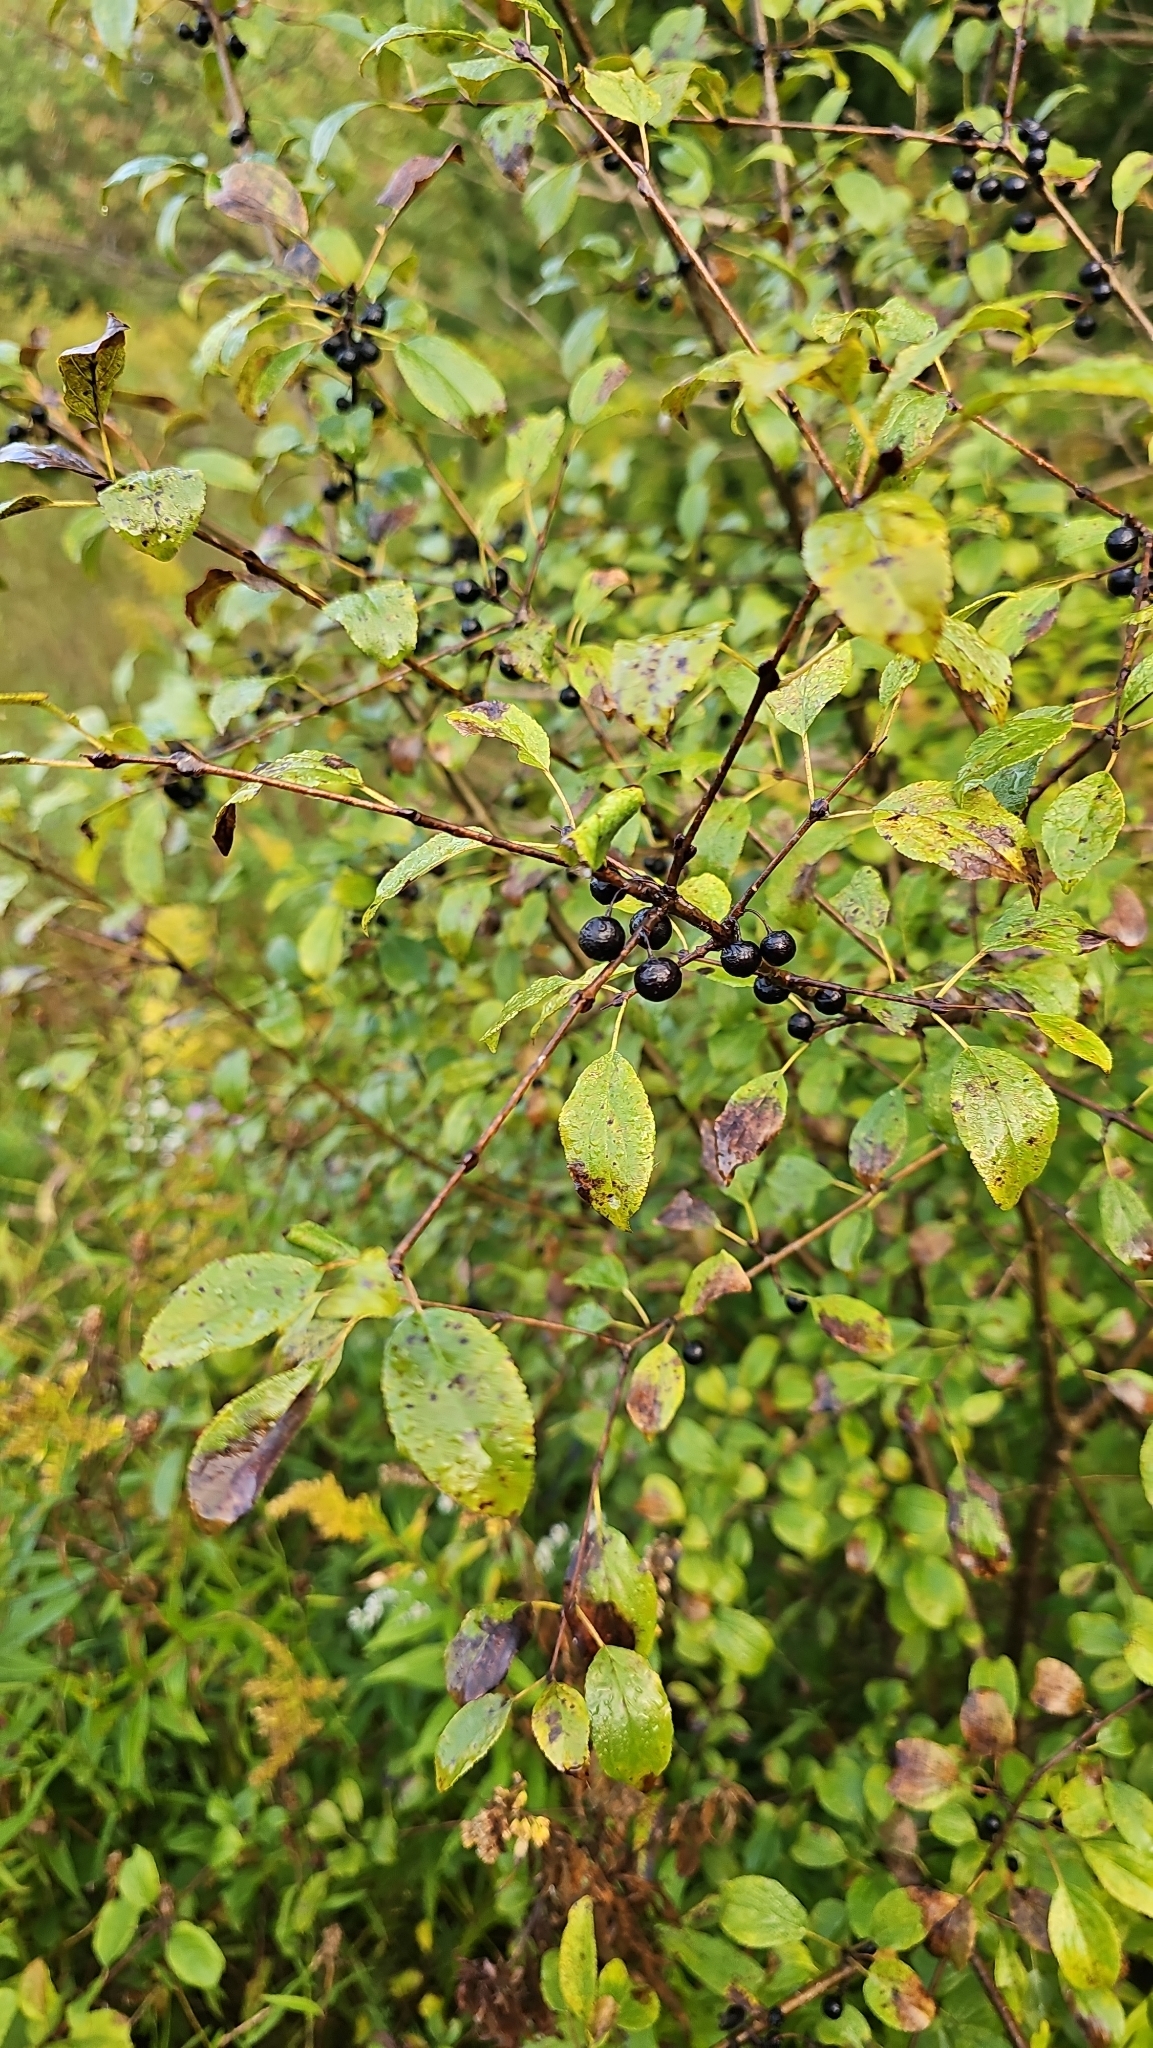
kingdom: Plantae
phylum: Tracheophyta
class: Magnoliopsida
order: Rosales
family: Rhamnaceae
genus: Rhamnus
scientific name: Rhamnus cathartica
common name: Common buckthorn
